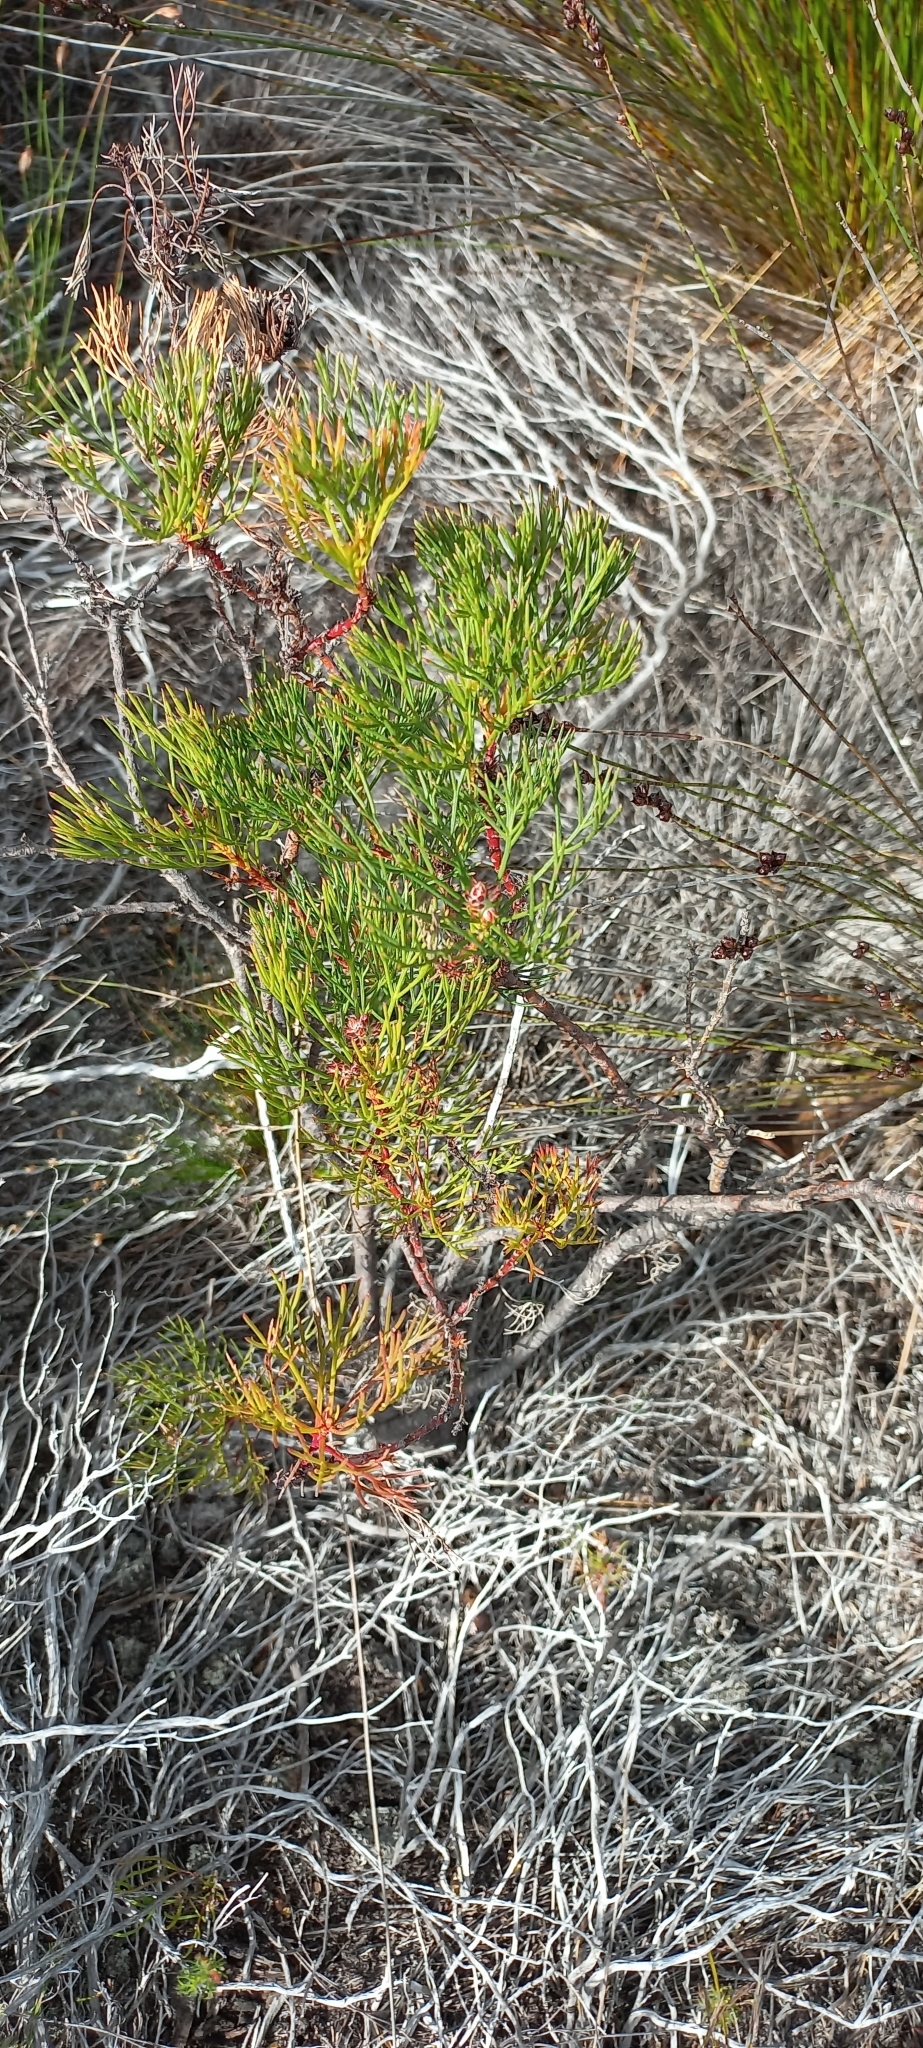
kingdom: Plantae
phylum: Tracheophyta
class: Magnoliopsida
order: Proteales
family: Proteaceae
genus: Serruria
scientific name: Serruria ascendens
